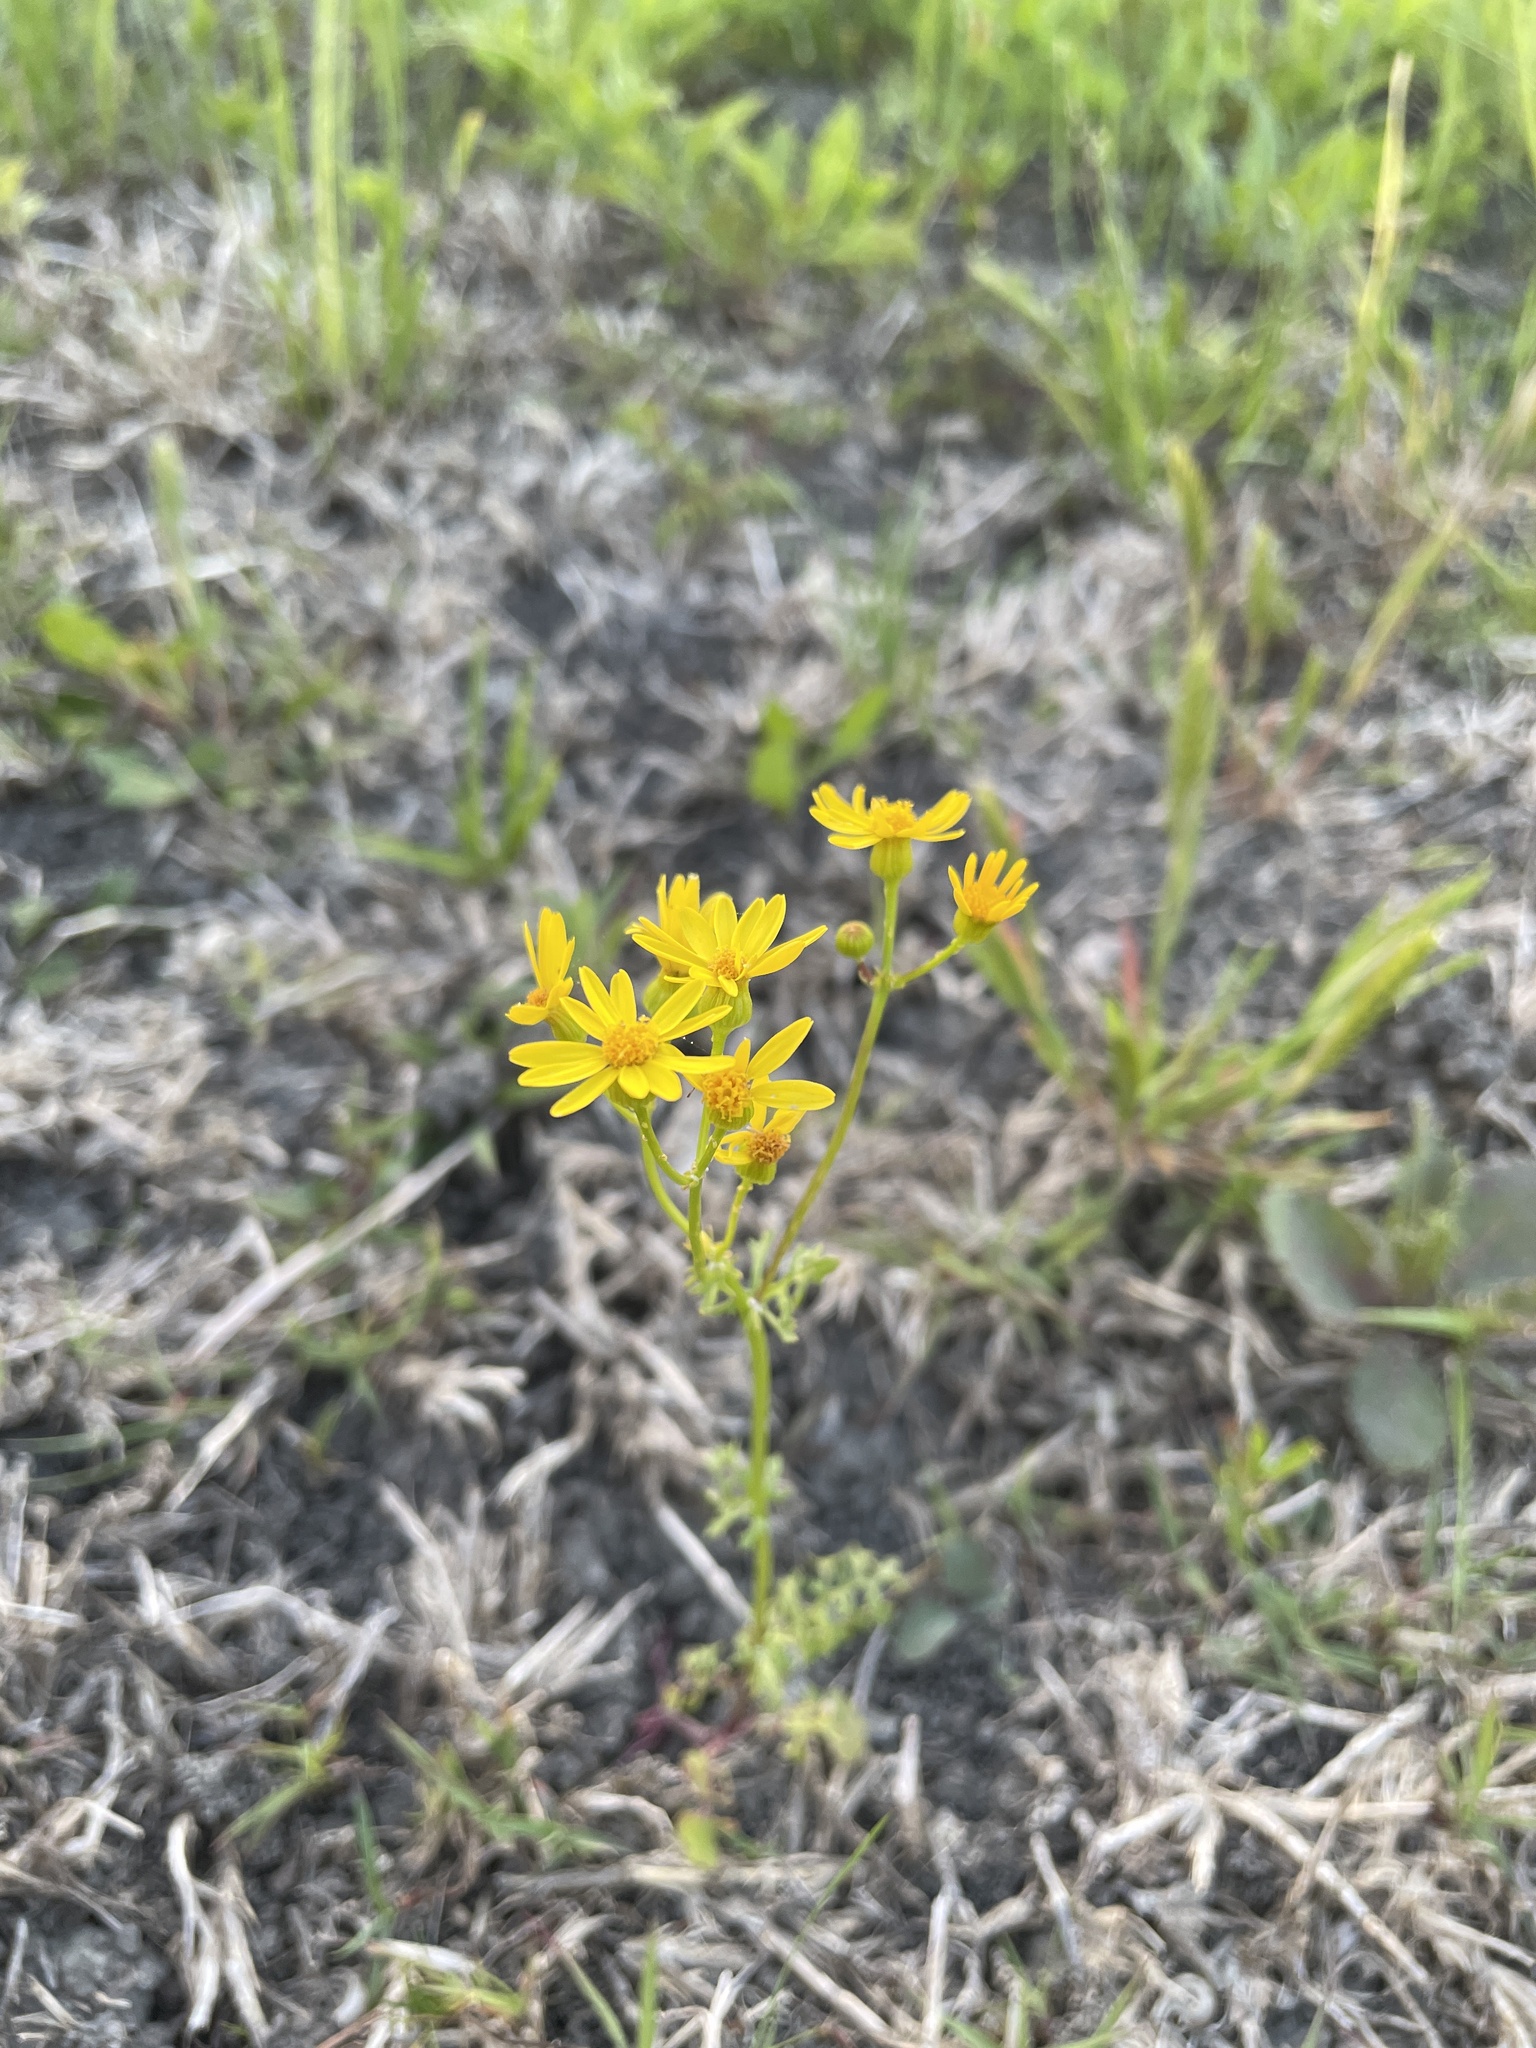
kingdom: Plantae
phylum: Tracheophyta
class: Magnoliopsida
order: Asterales
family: Asteraceae
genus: Packera
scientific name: Packera tampicana
